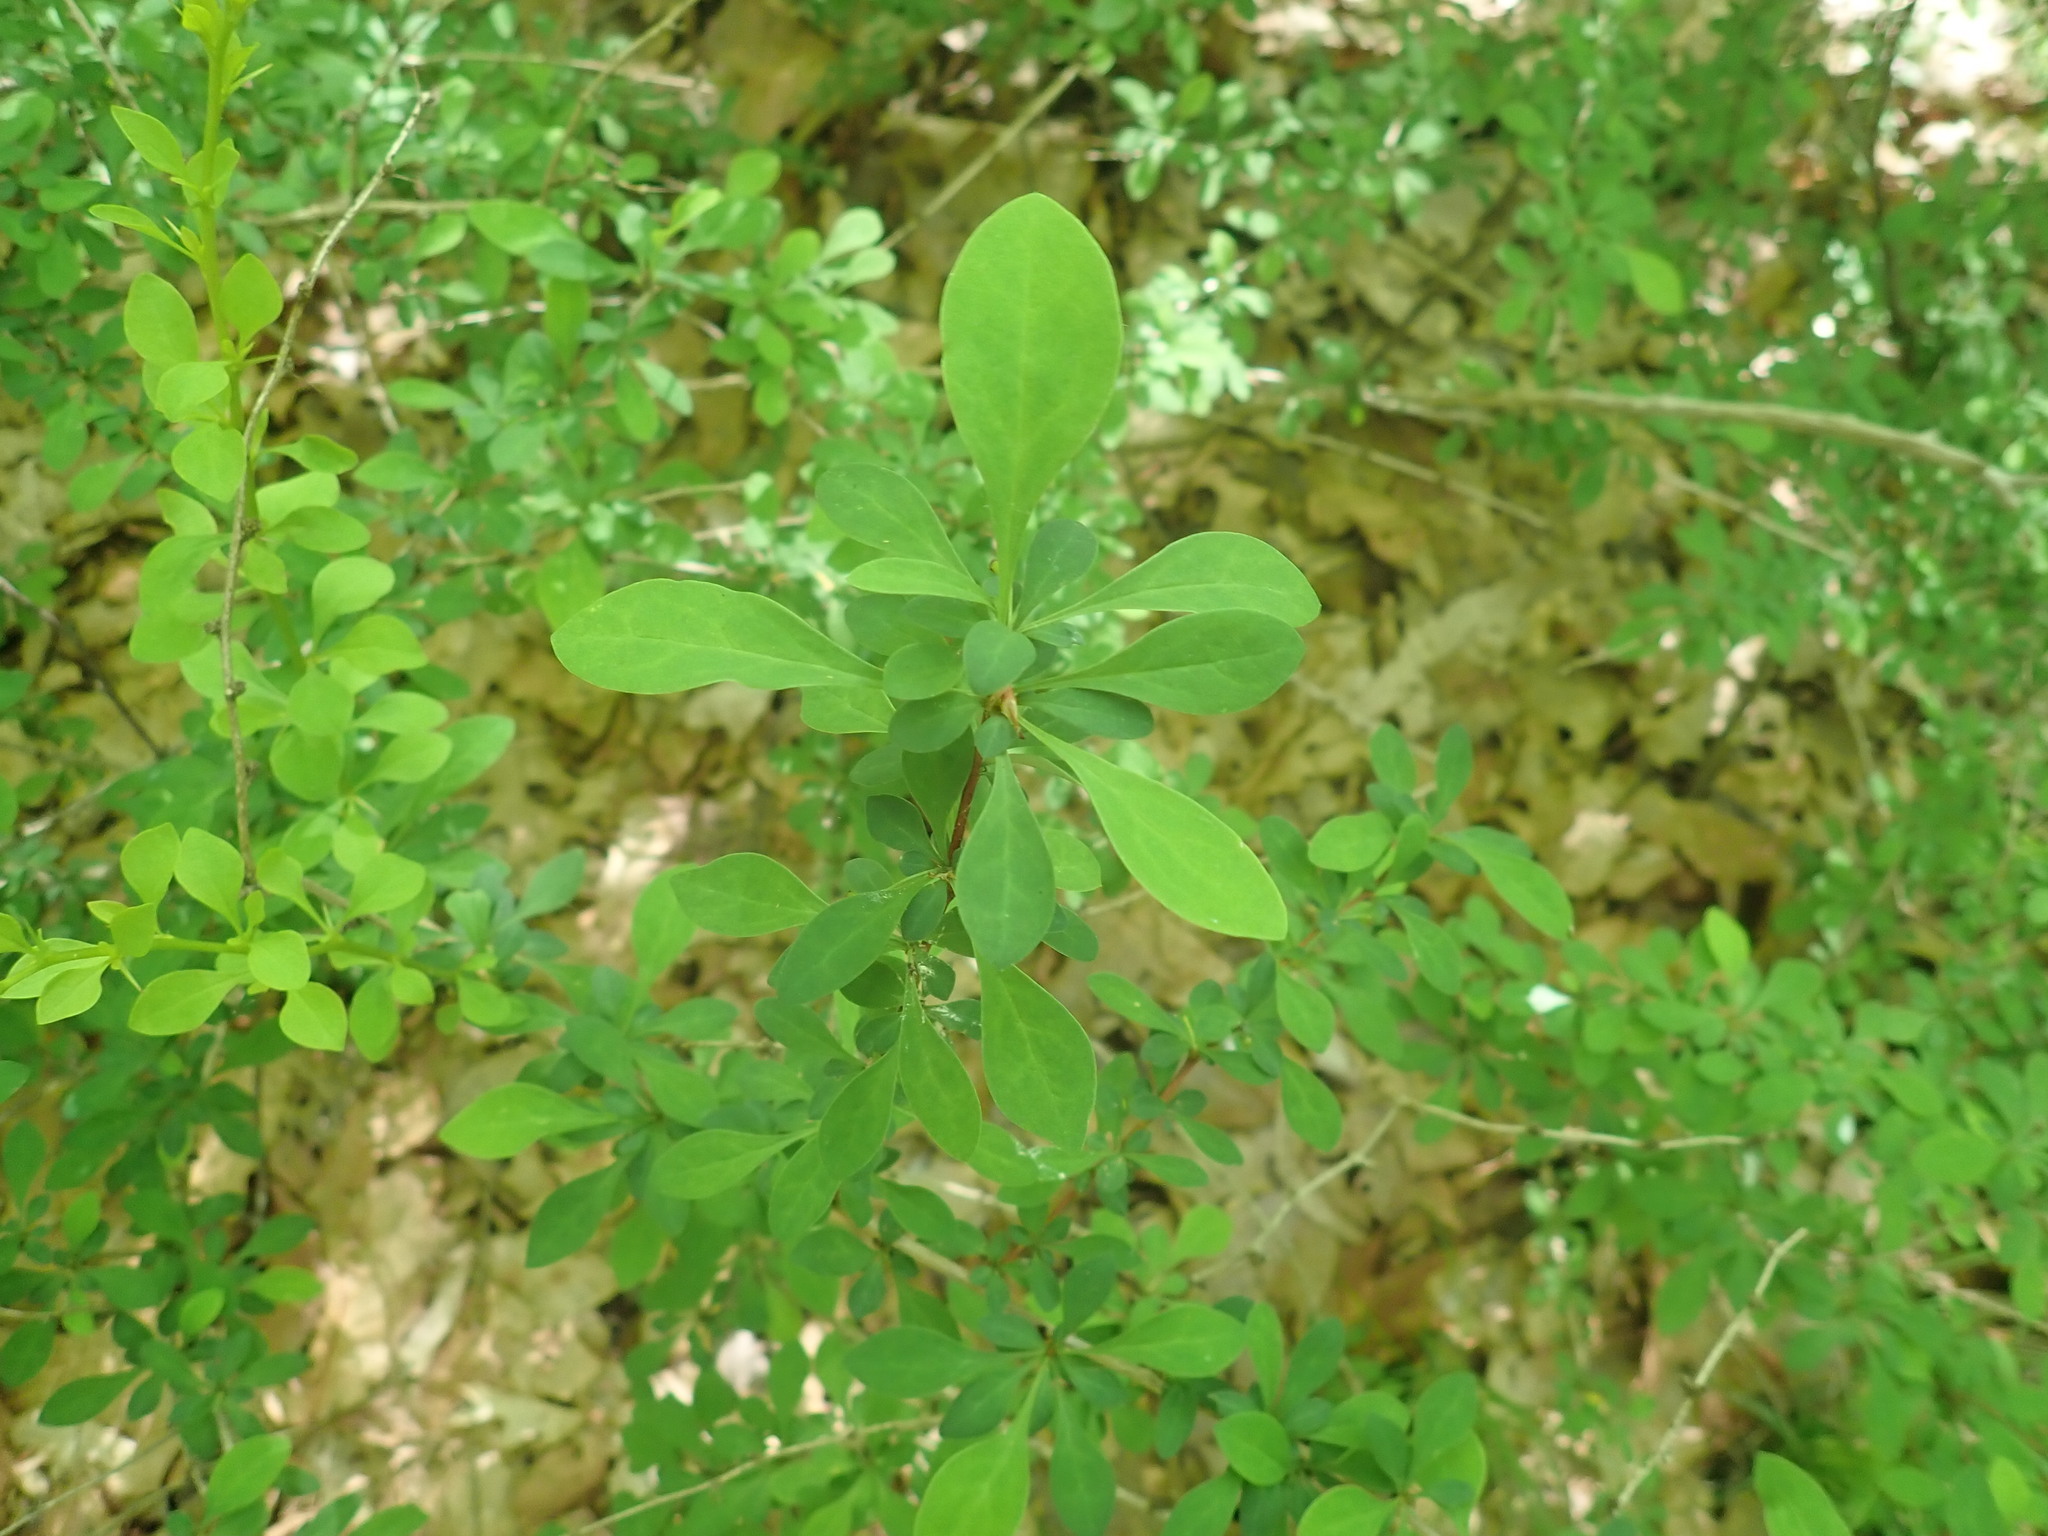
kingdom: Plantae
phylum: Tracheophyta
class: Magnoliopsida
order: Ranunculales
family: Berberidaceae
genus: Berberis
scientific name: Berberis thunbergii
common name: Japanese barberry
